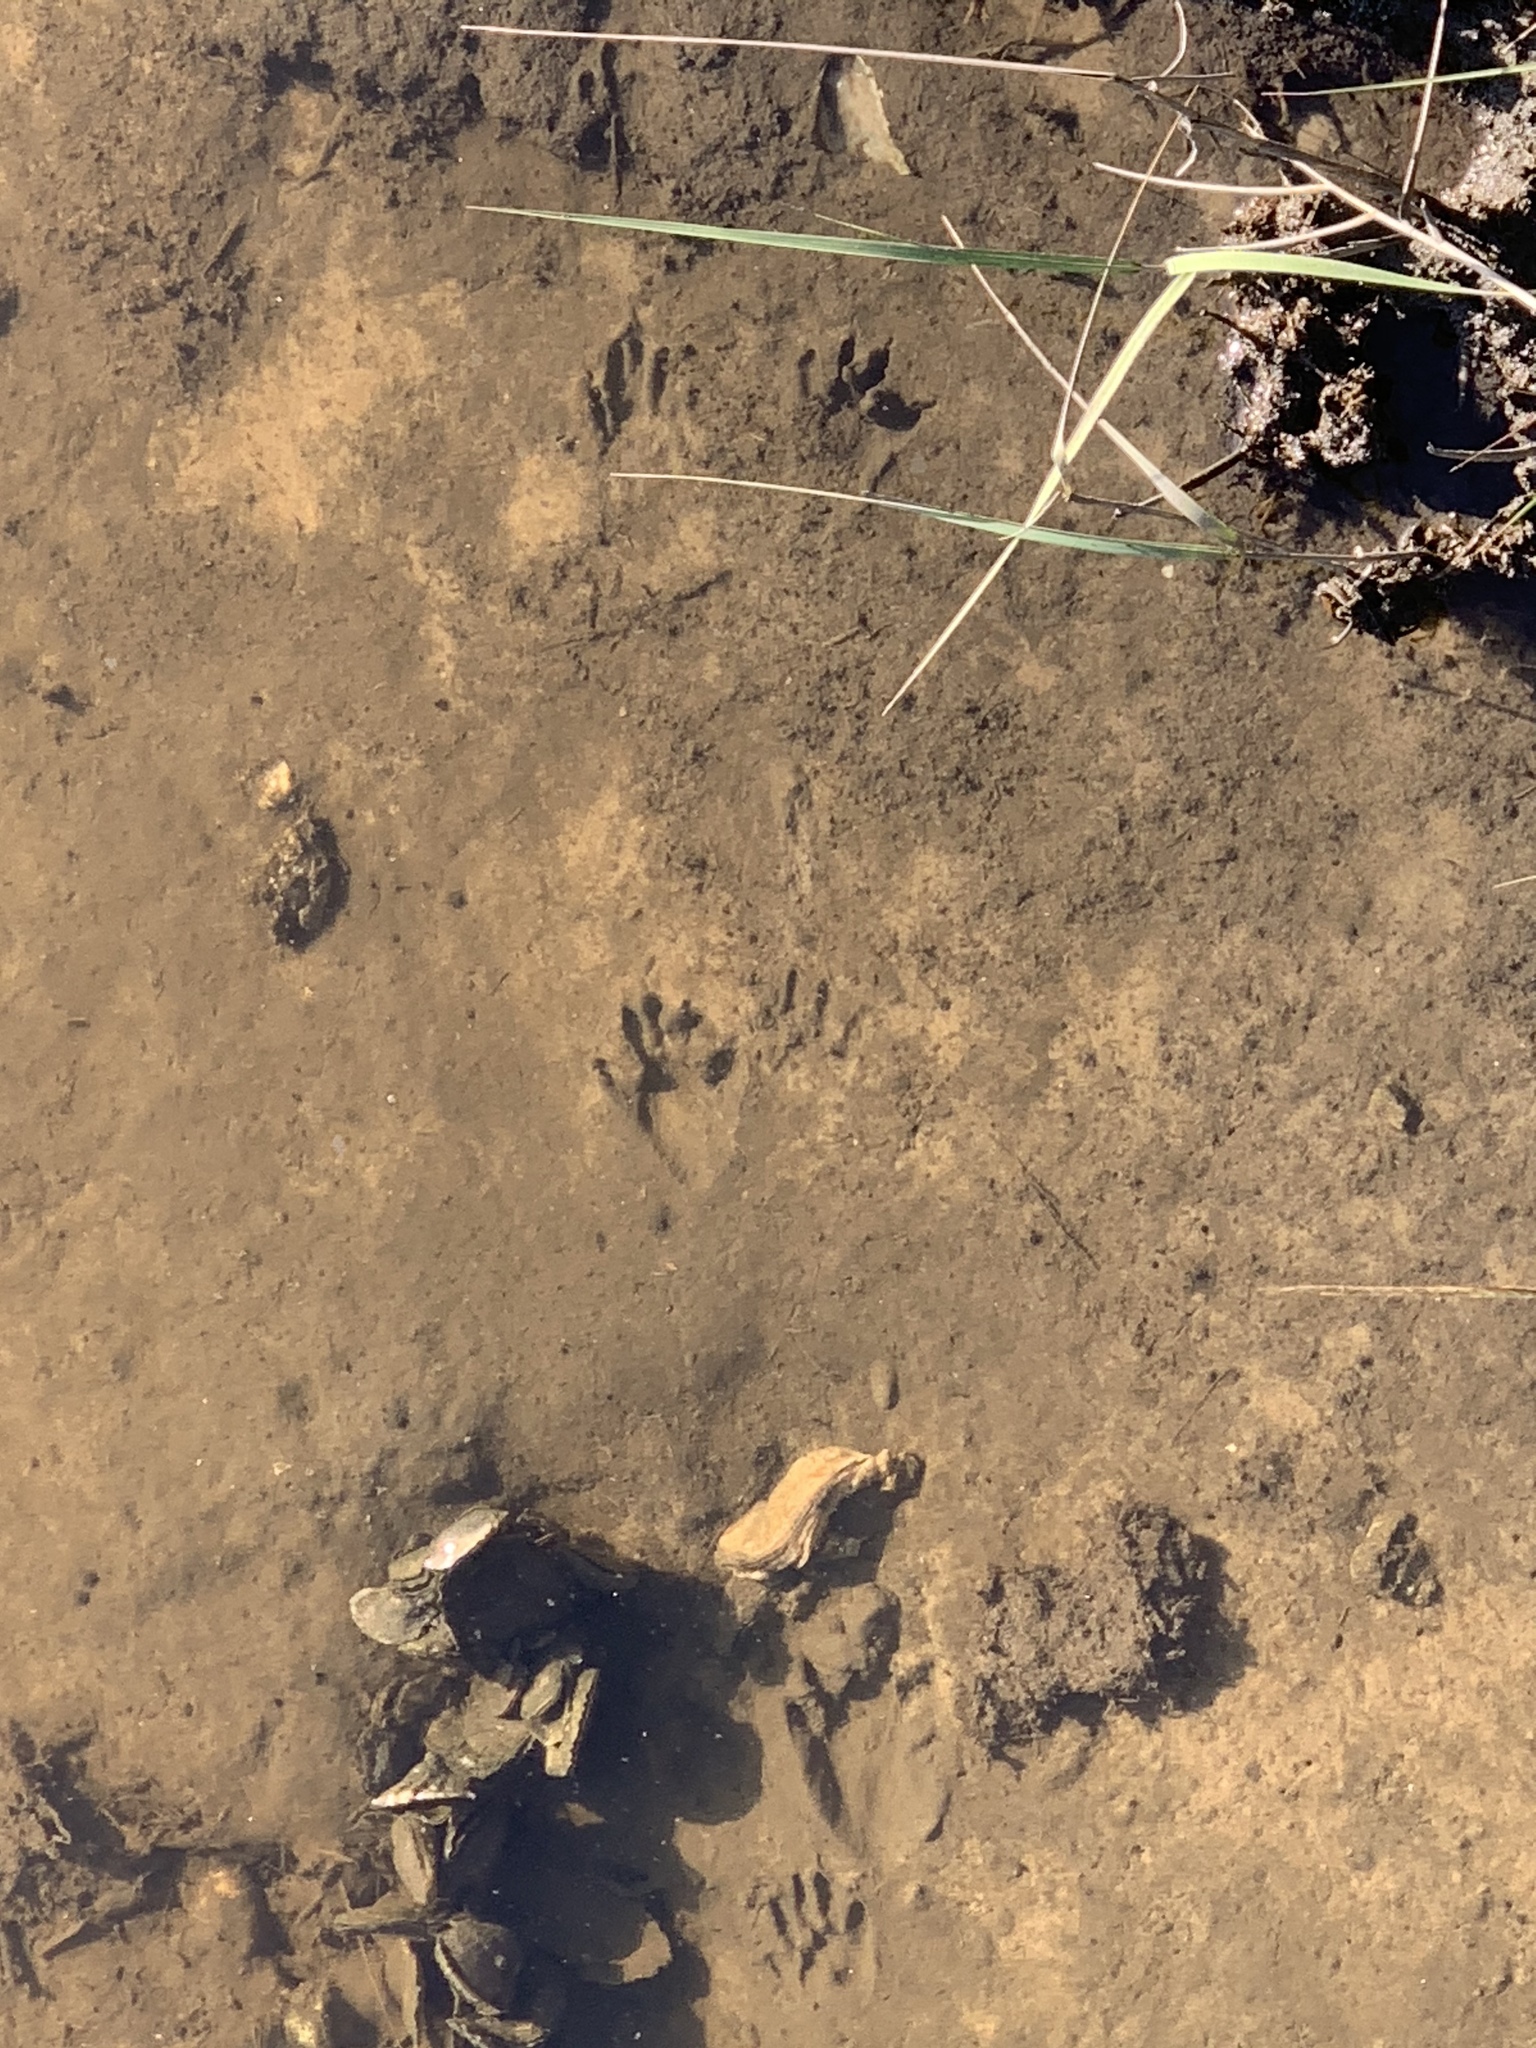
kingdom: Animalia
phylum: Chordata
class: Mammalia
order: Carnivora
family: Procyonidae
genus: Procyon
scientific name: Procyon lotor
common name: Raccoon
